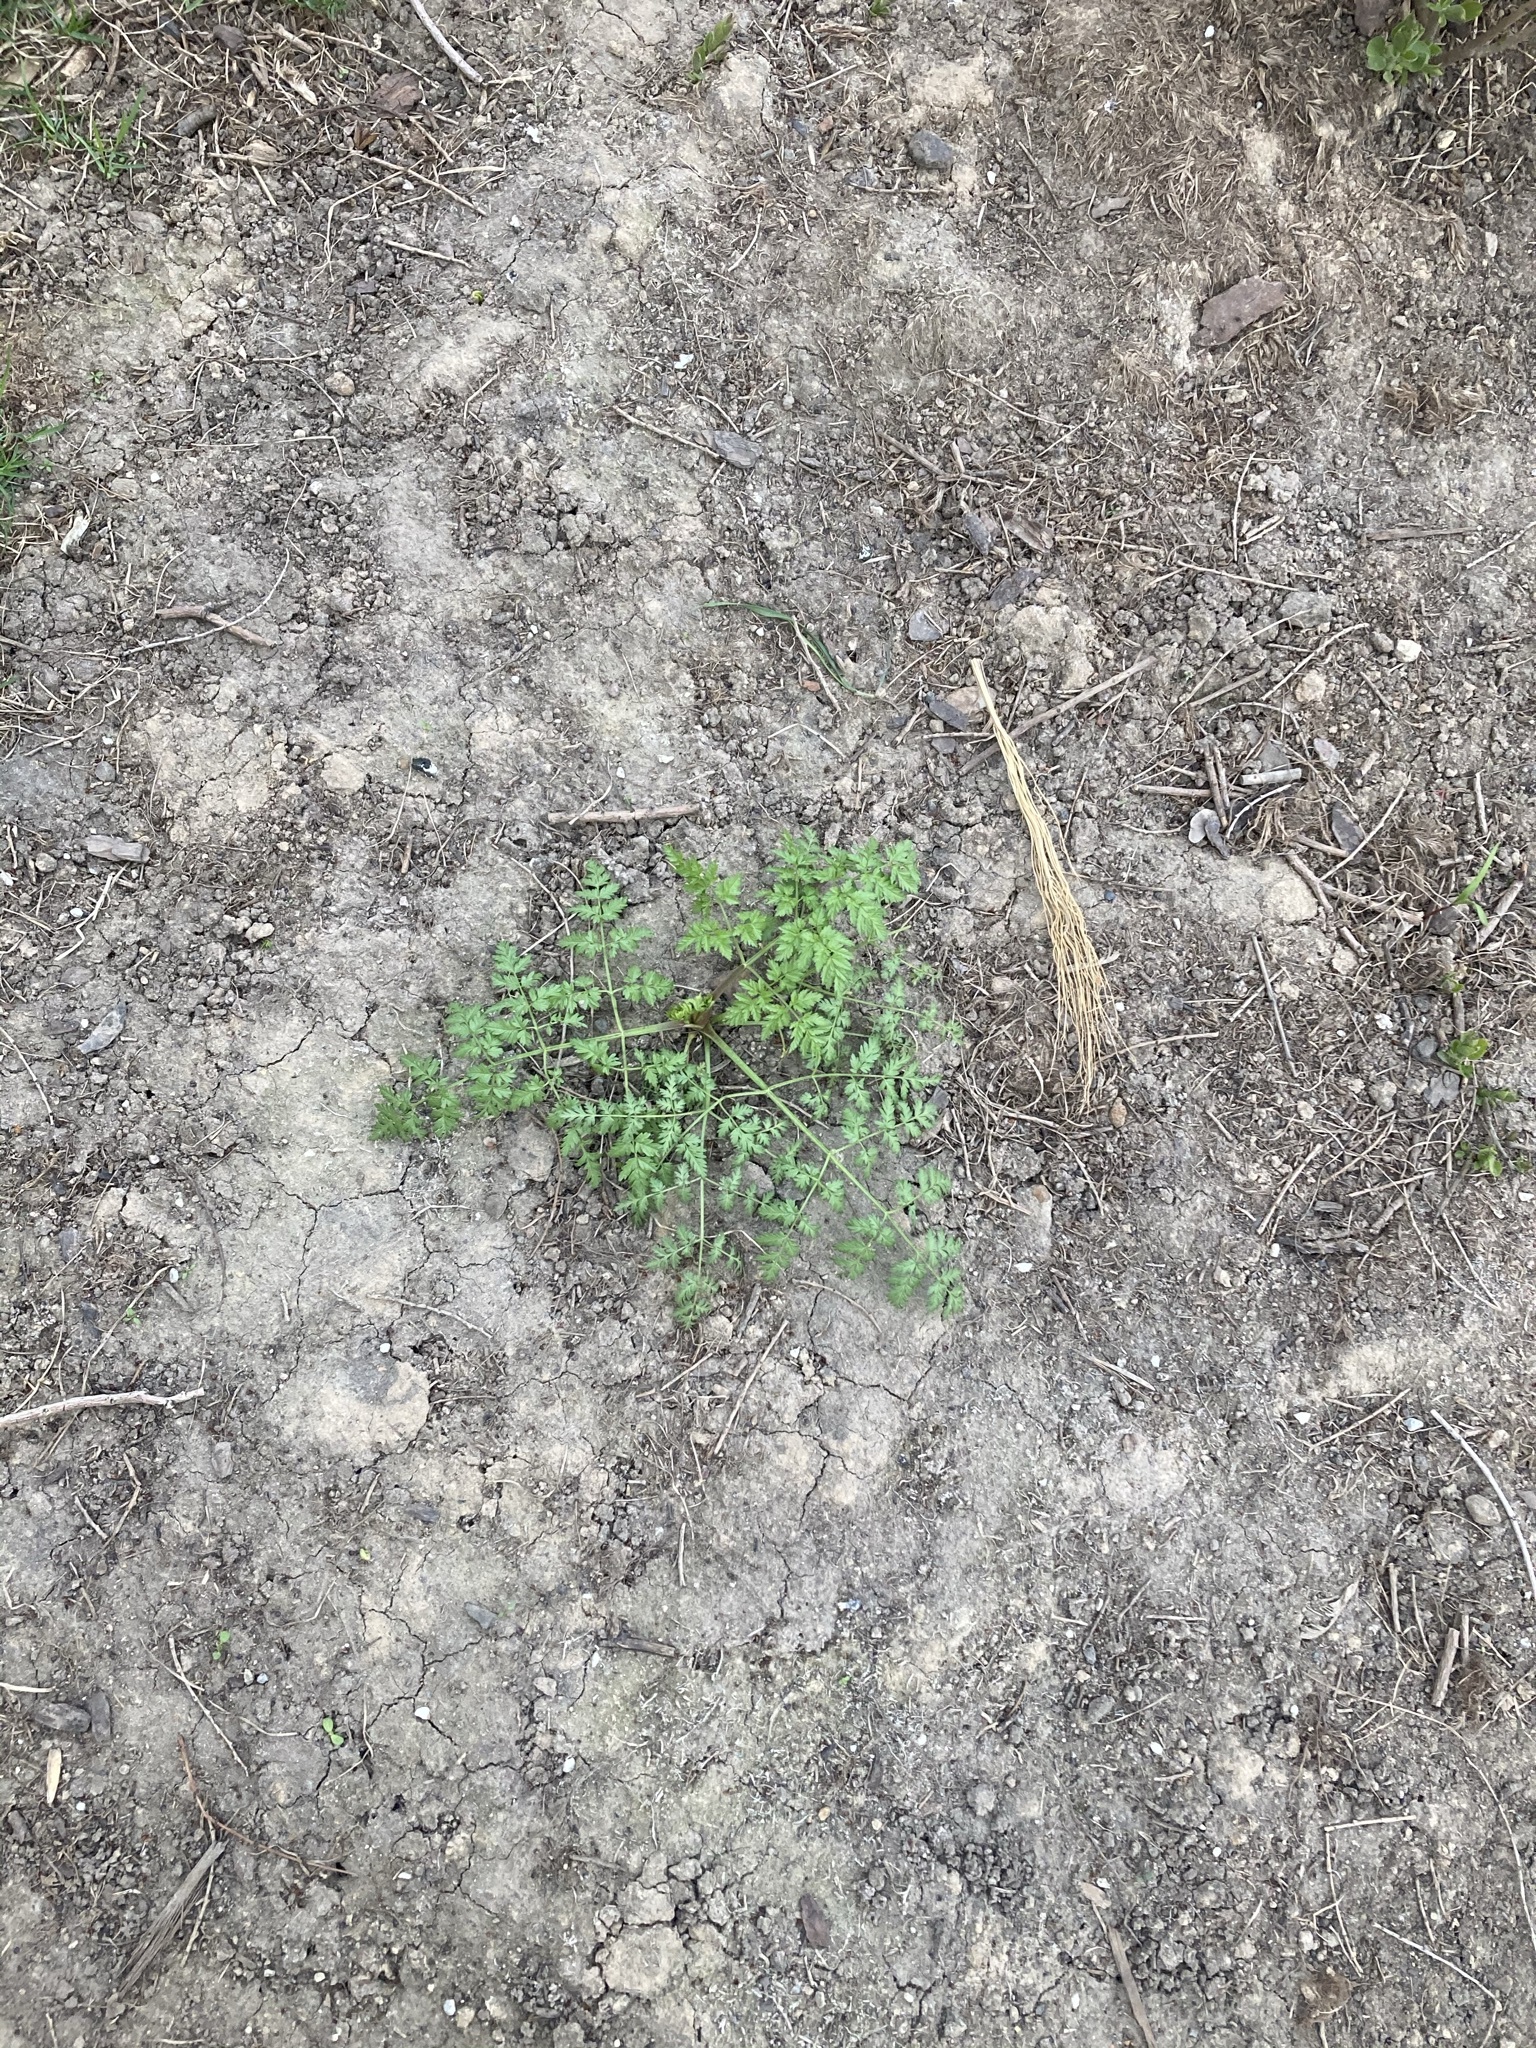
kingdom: Plantae
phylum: Tracheophyta
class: Magnoliopsida
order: Apiales
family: Apiaceae
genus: Anthriscus
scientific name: Anthriscus sylvestris
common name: Cow parsley
